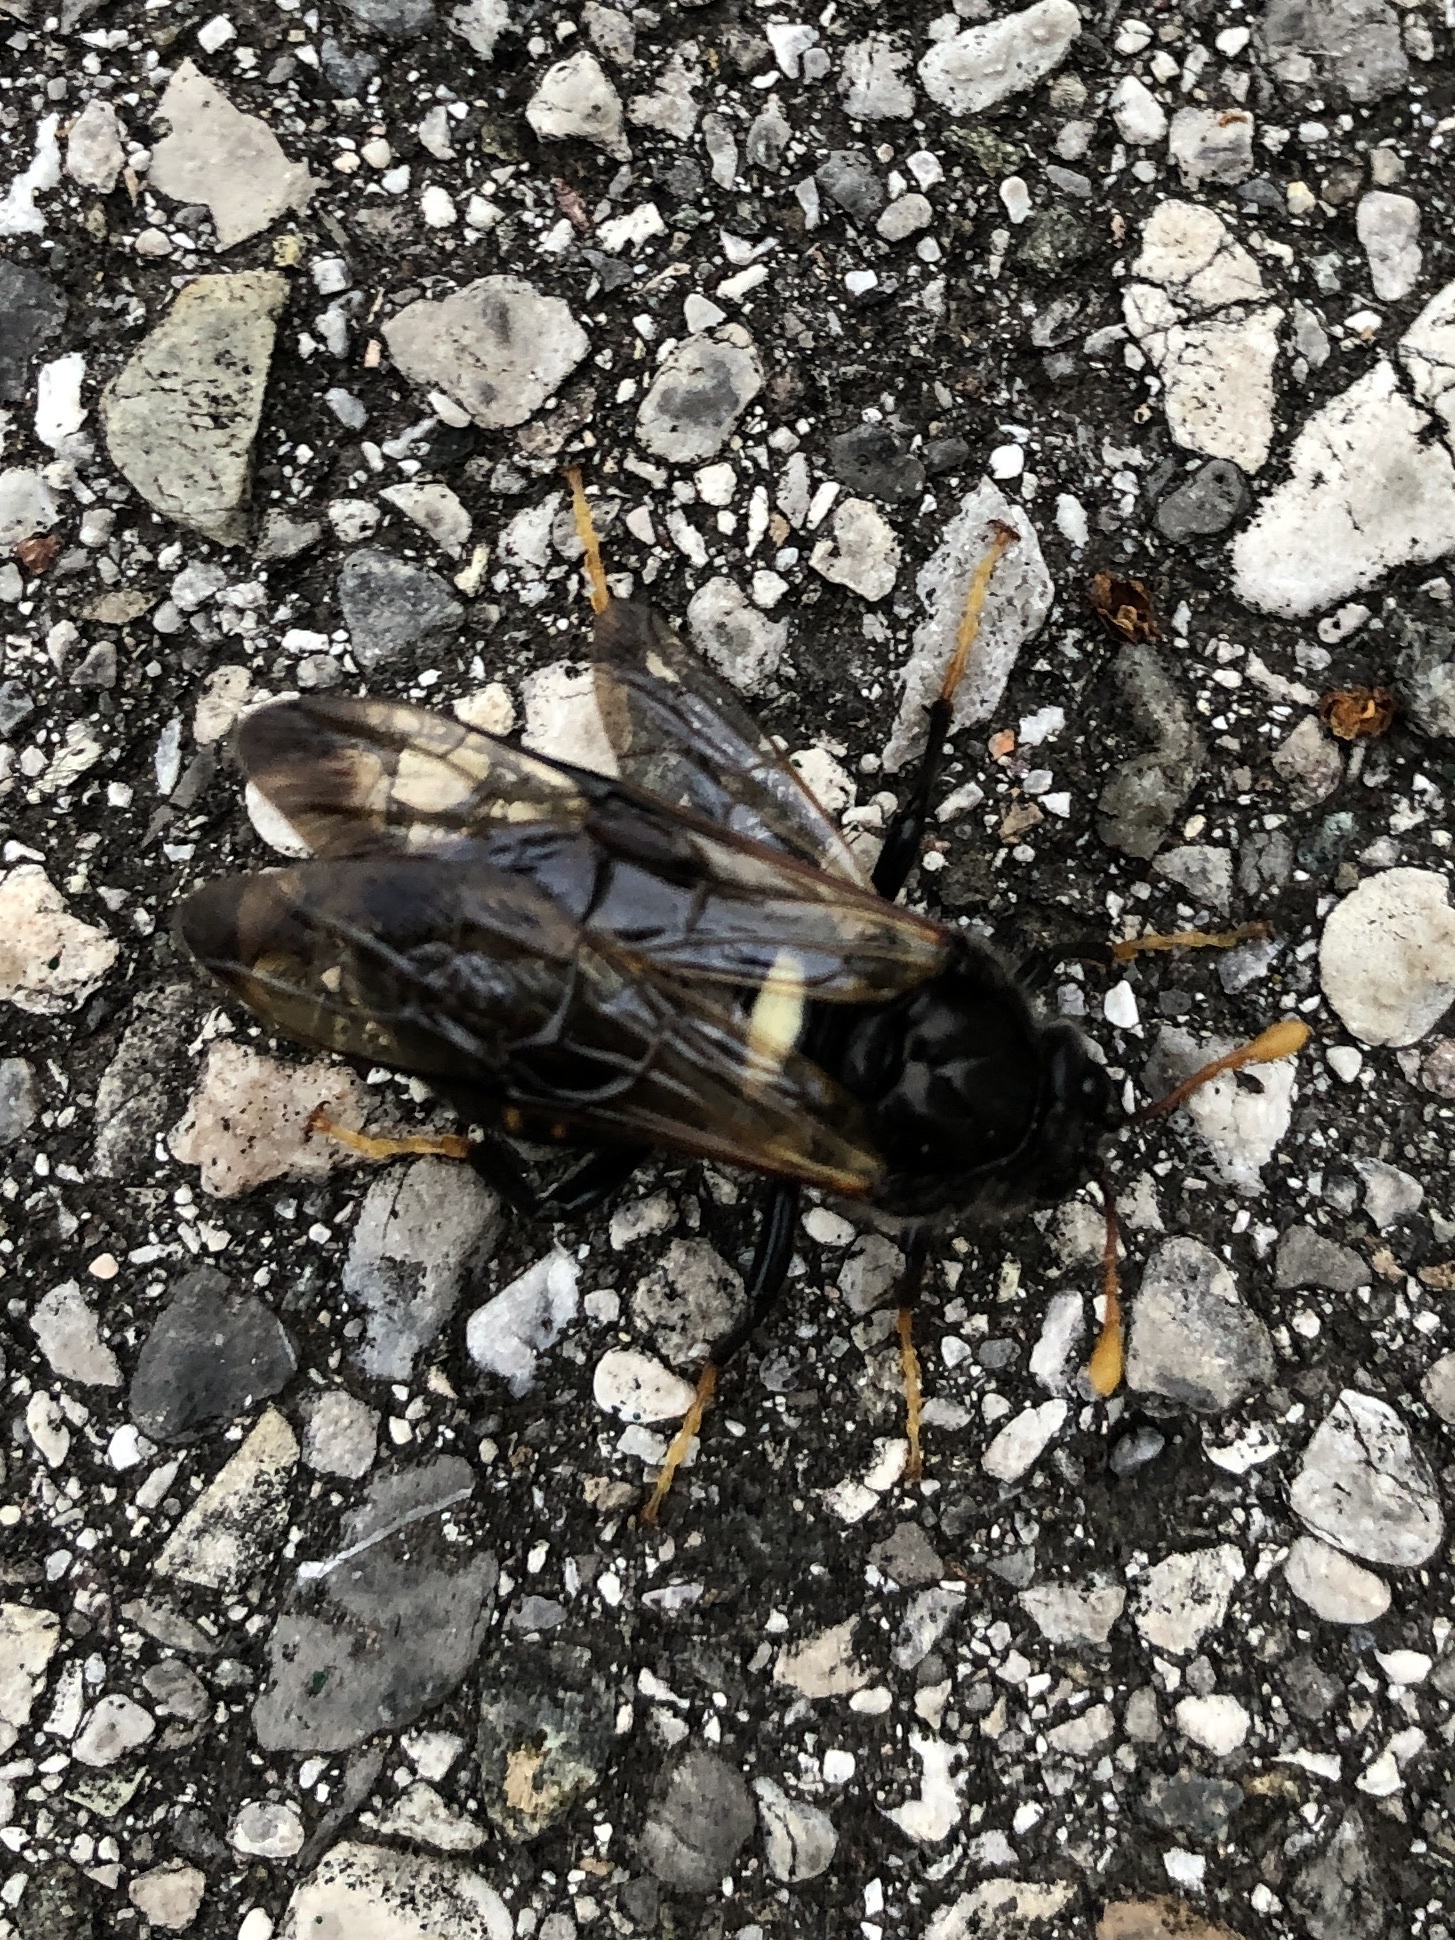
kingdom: Animalia
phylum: Arthropoda
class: Insecta
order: Hymenoptera
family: Cimbicidae
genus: Cimbex
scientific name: Cimbex femoratus
